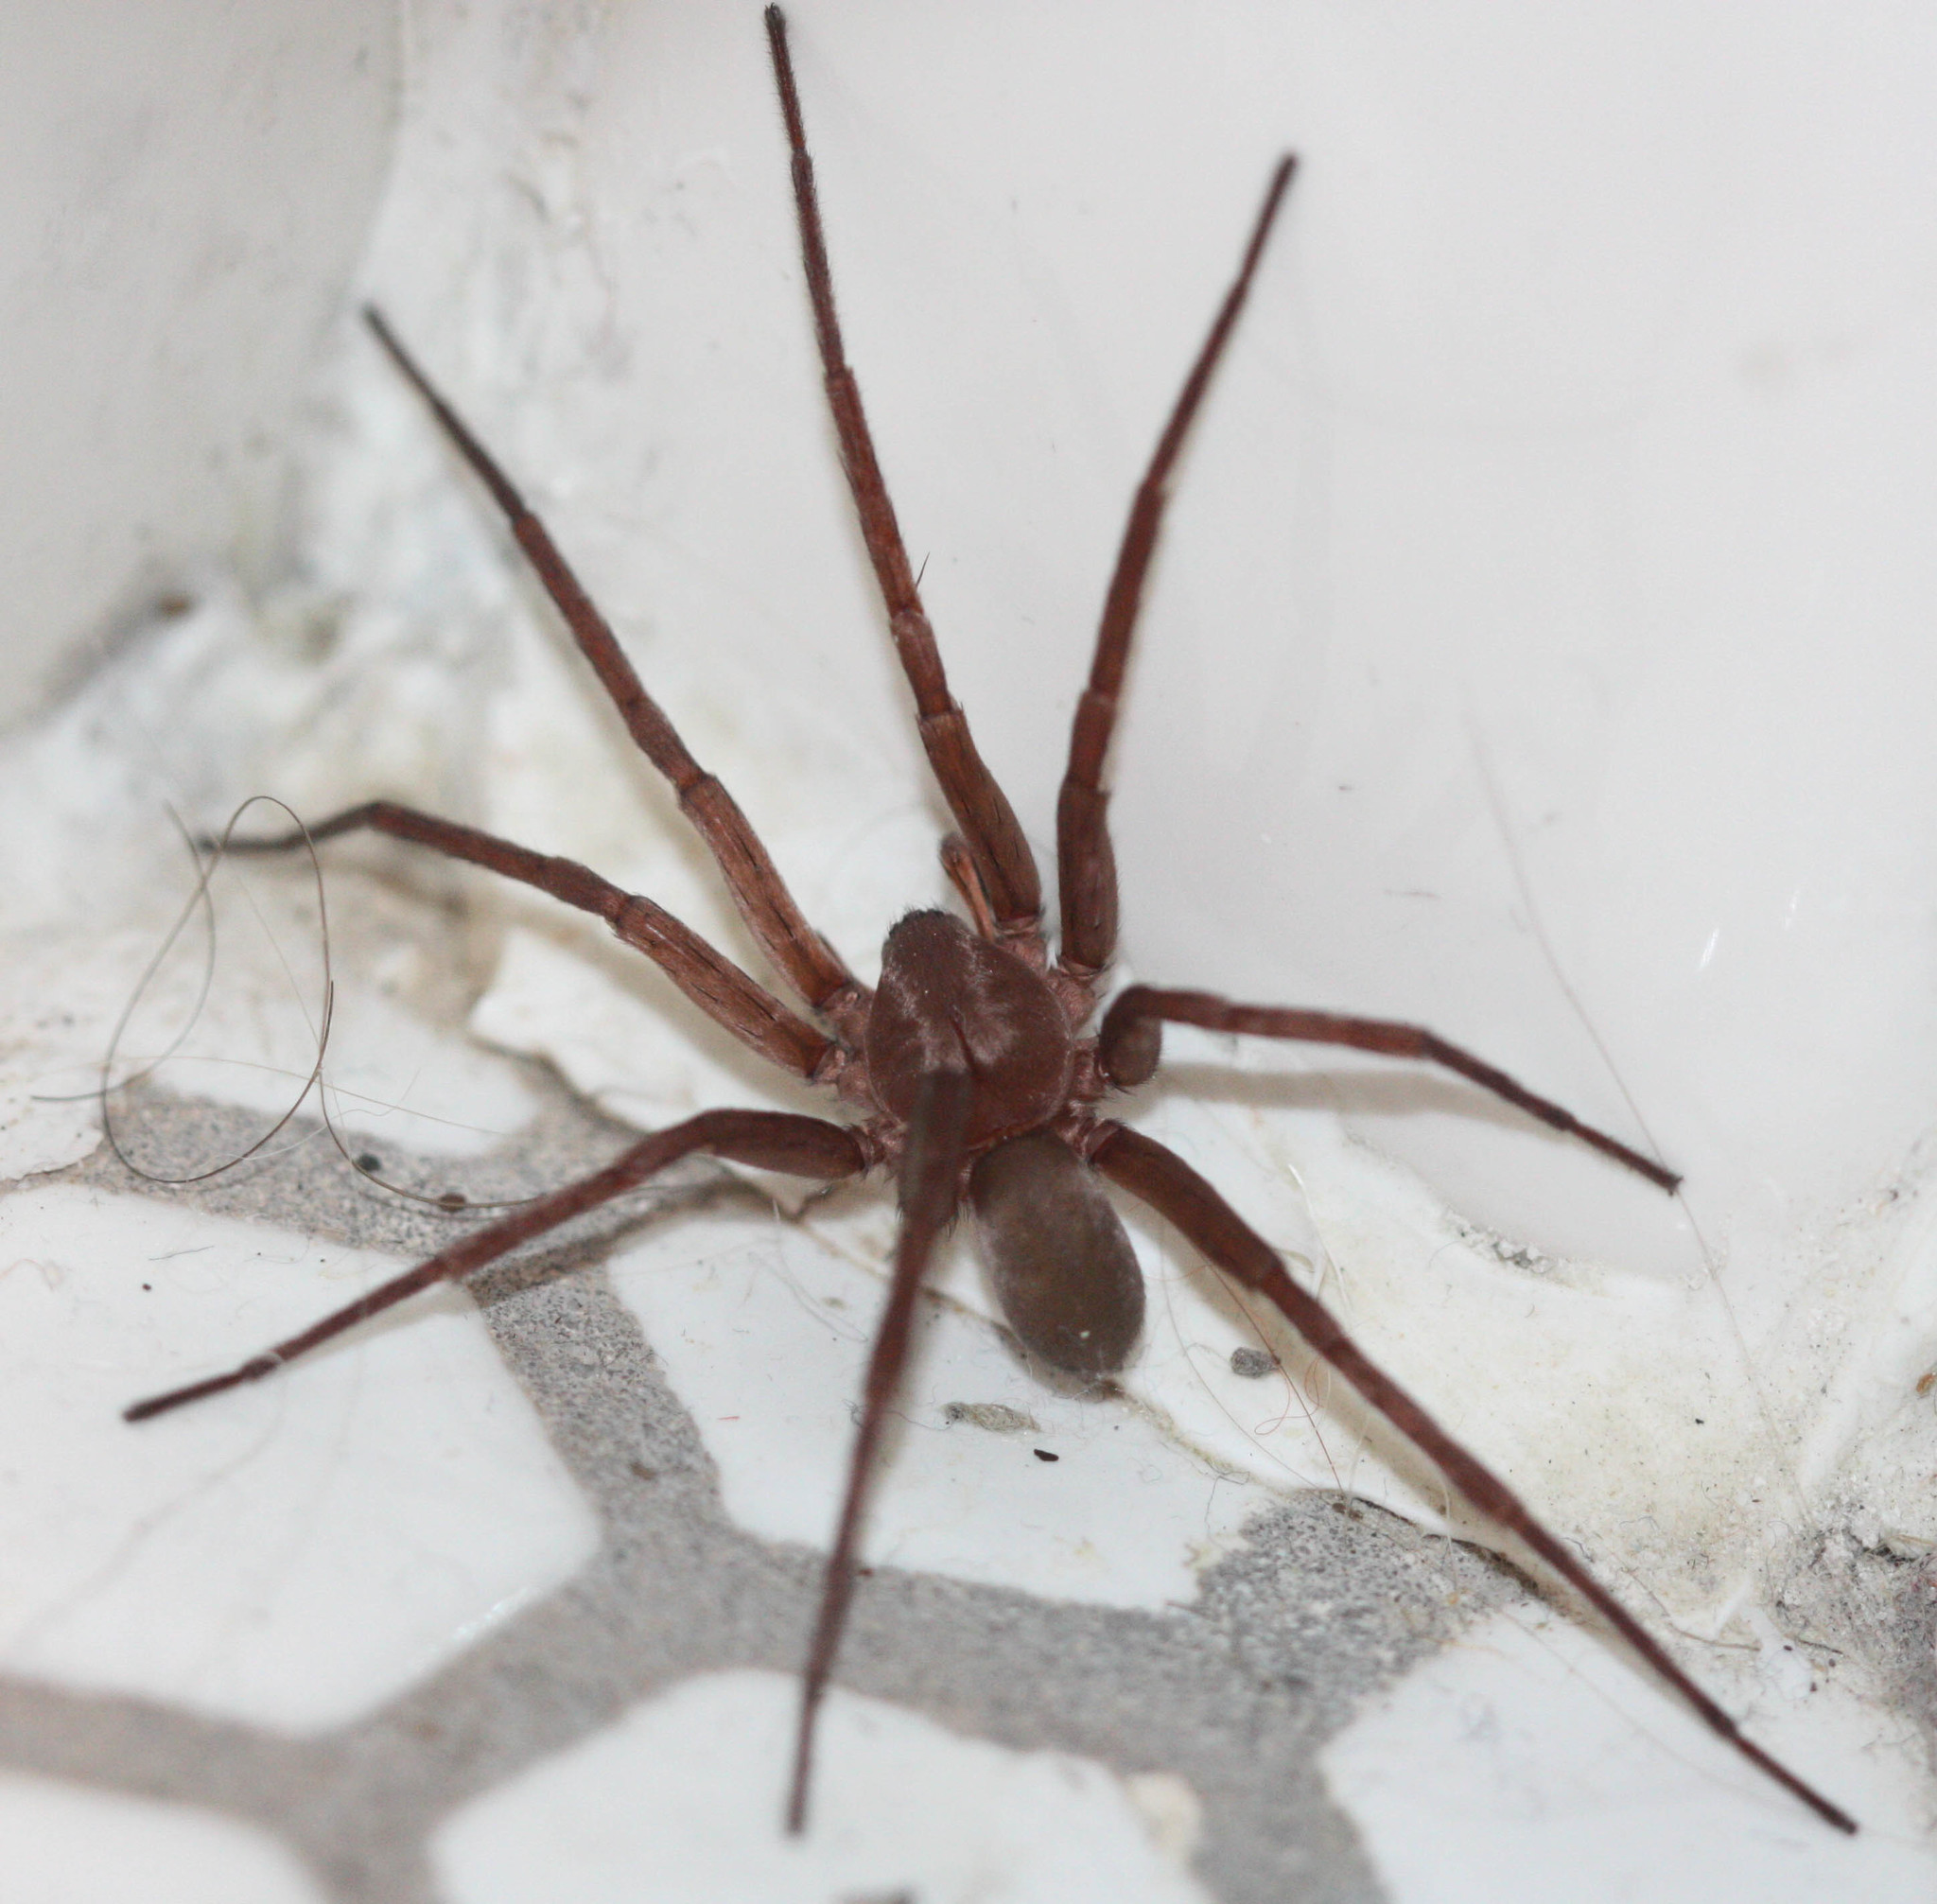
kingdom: Animalia
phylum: Arthropoda
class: Arachnida
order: Araneae
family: Zoropsidae
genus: Titiotus
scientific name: Titiotus
